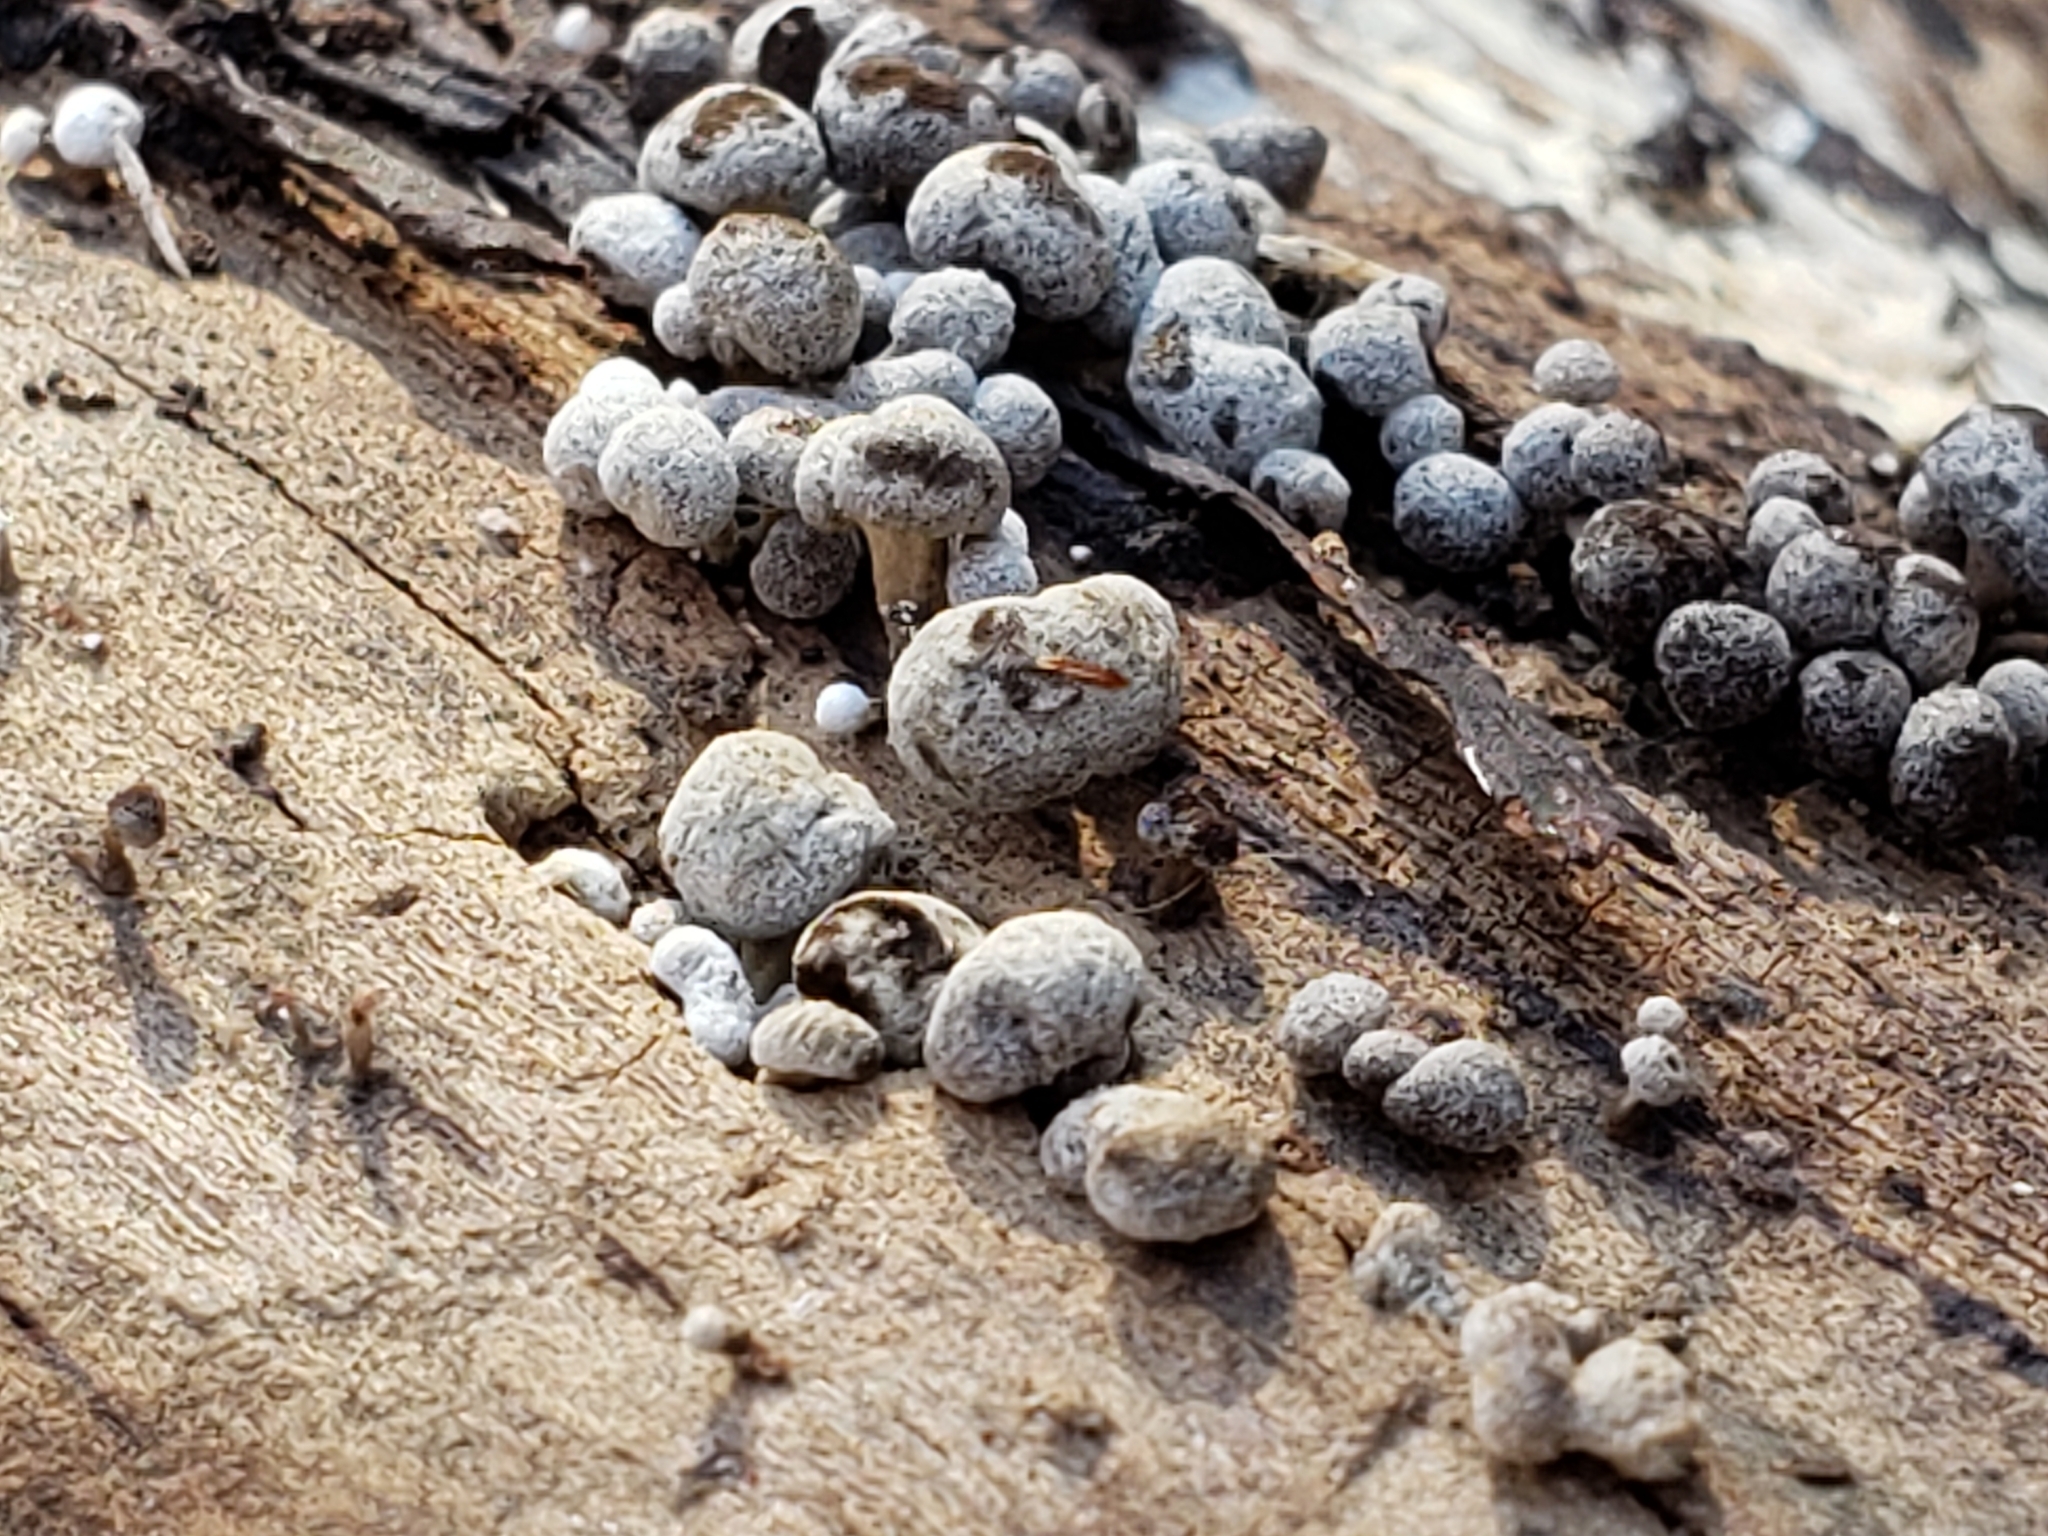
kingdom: Fungi
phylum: Basidiomycota
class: Atractiellomycetes
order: Atractiellales
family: Phleogenaceae
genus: Phleogena
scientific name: Phleogena faginea
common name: Fenugreek stalkball
